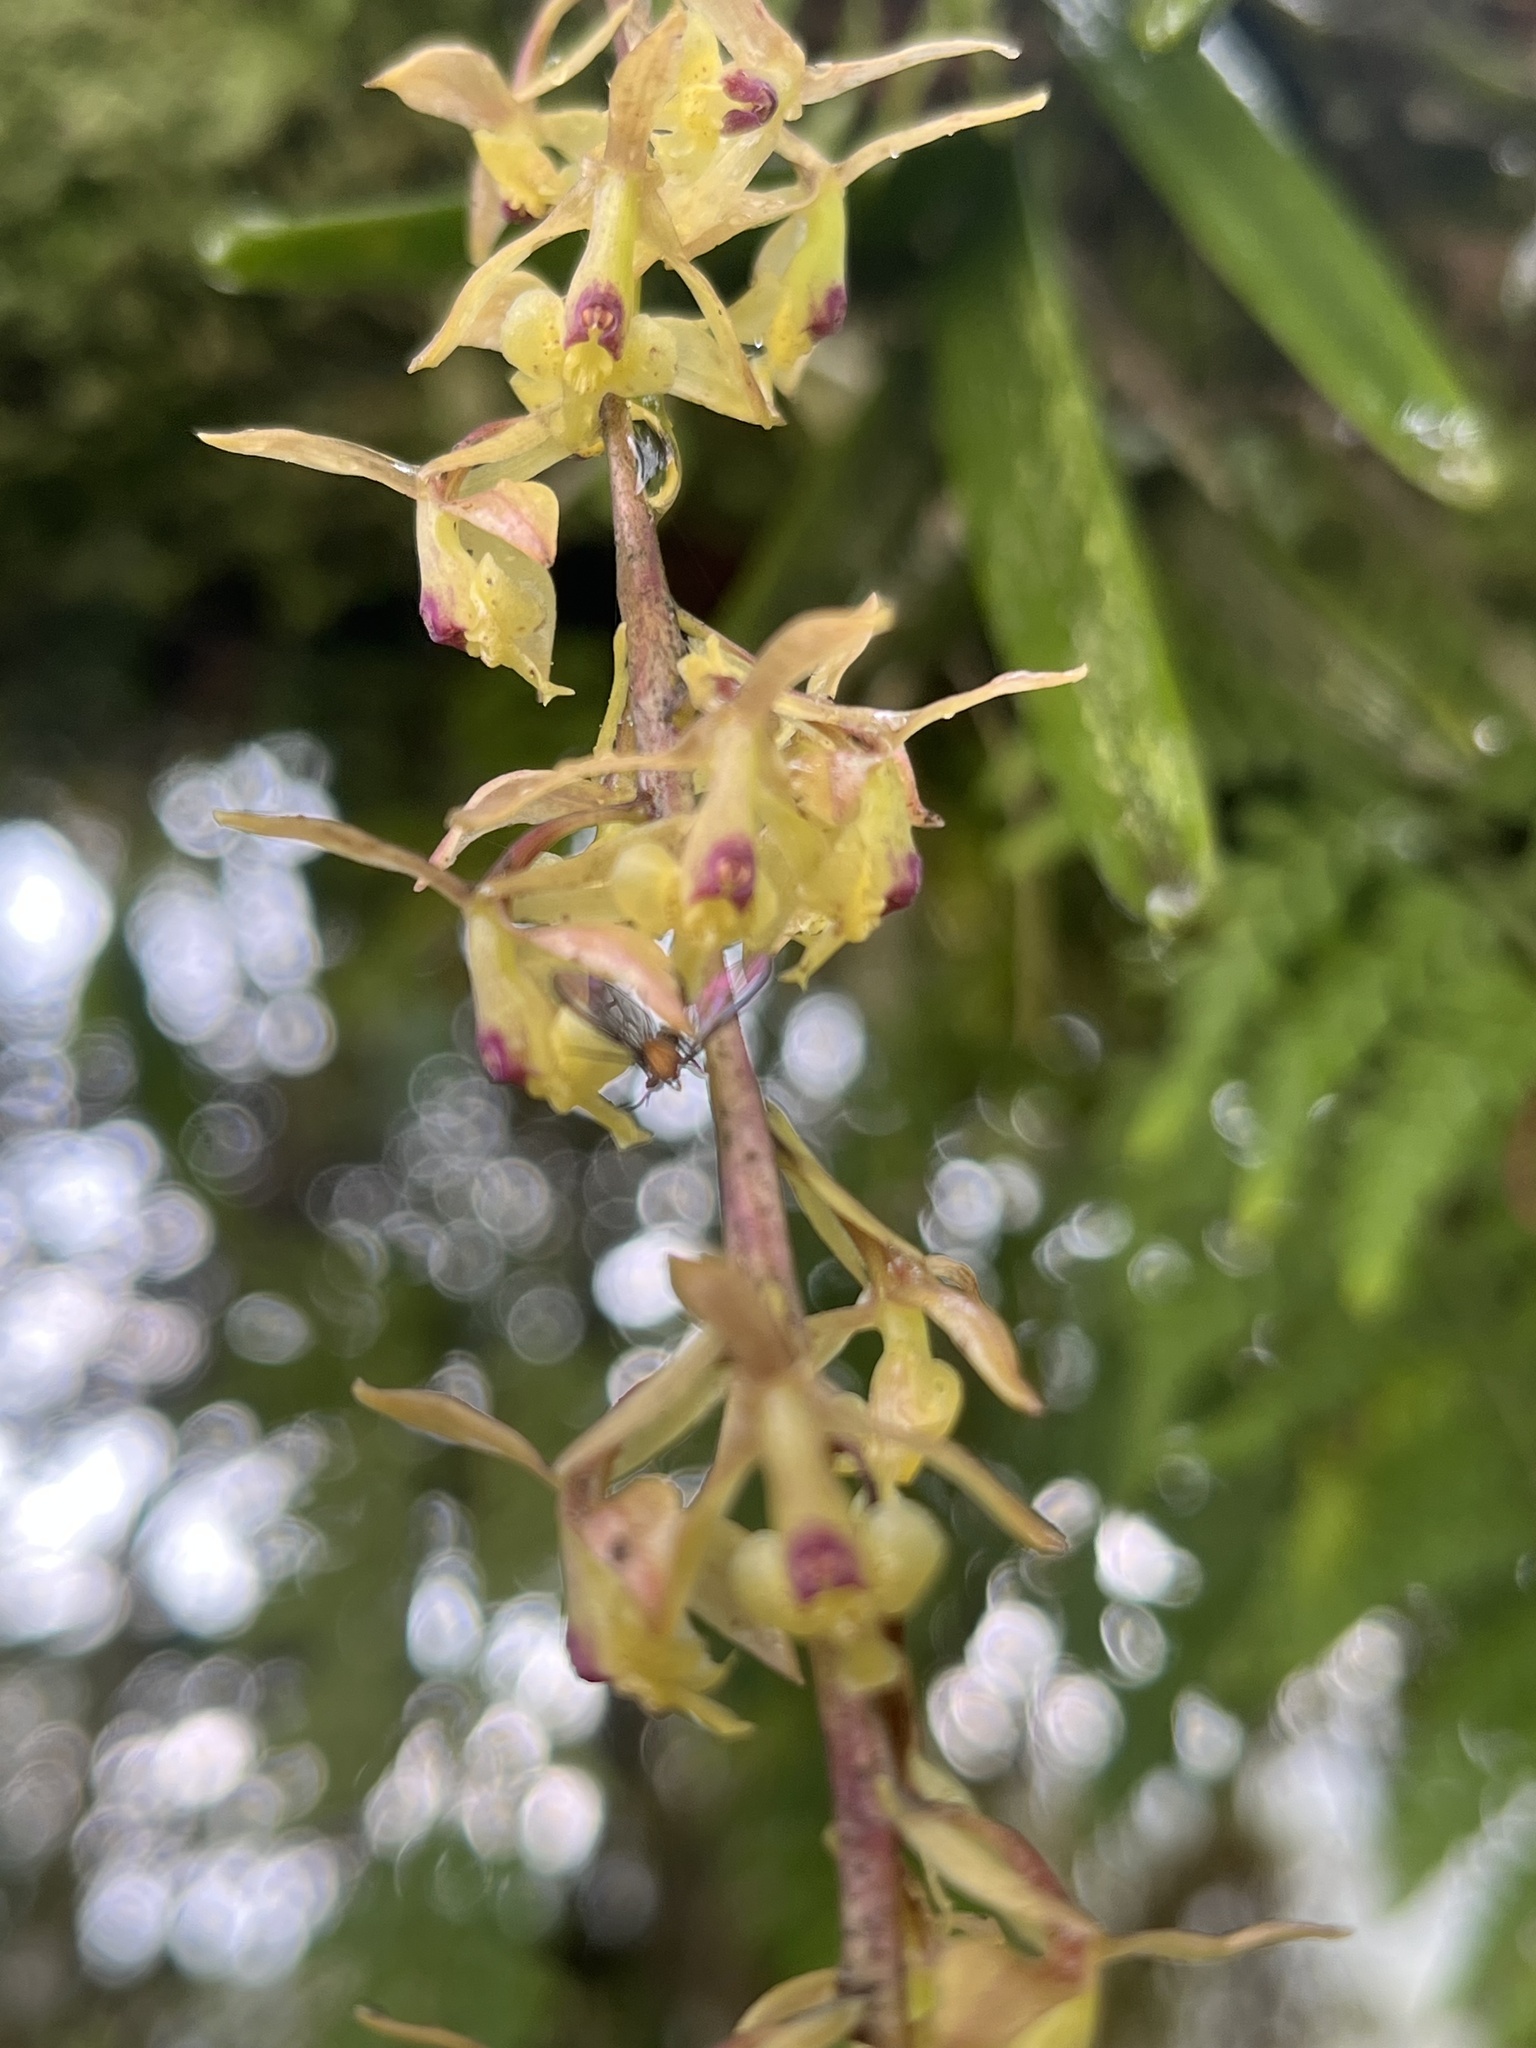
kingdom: Plantae
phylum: Tracheophyta
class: Liliopsida
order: Asparagales
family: Orchidaceae
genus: Epidendrum
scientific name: Epidendrum moritzii
